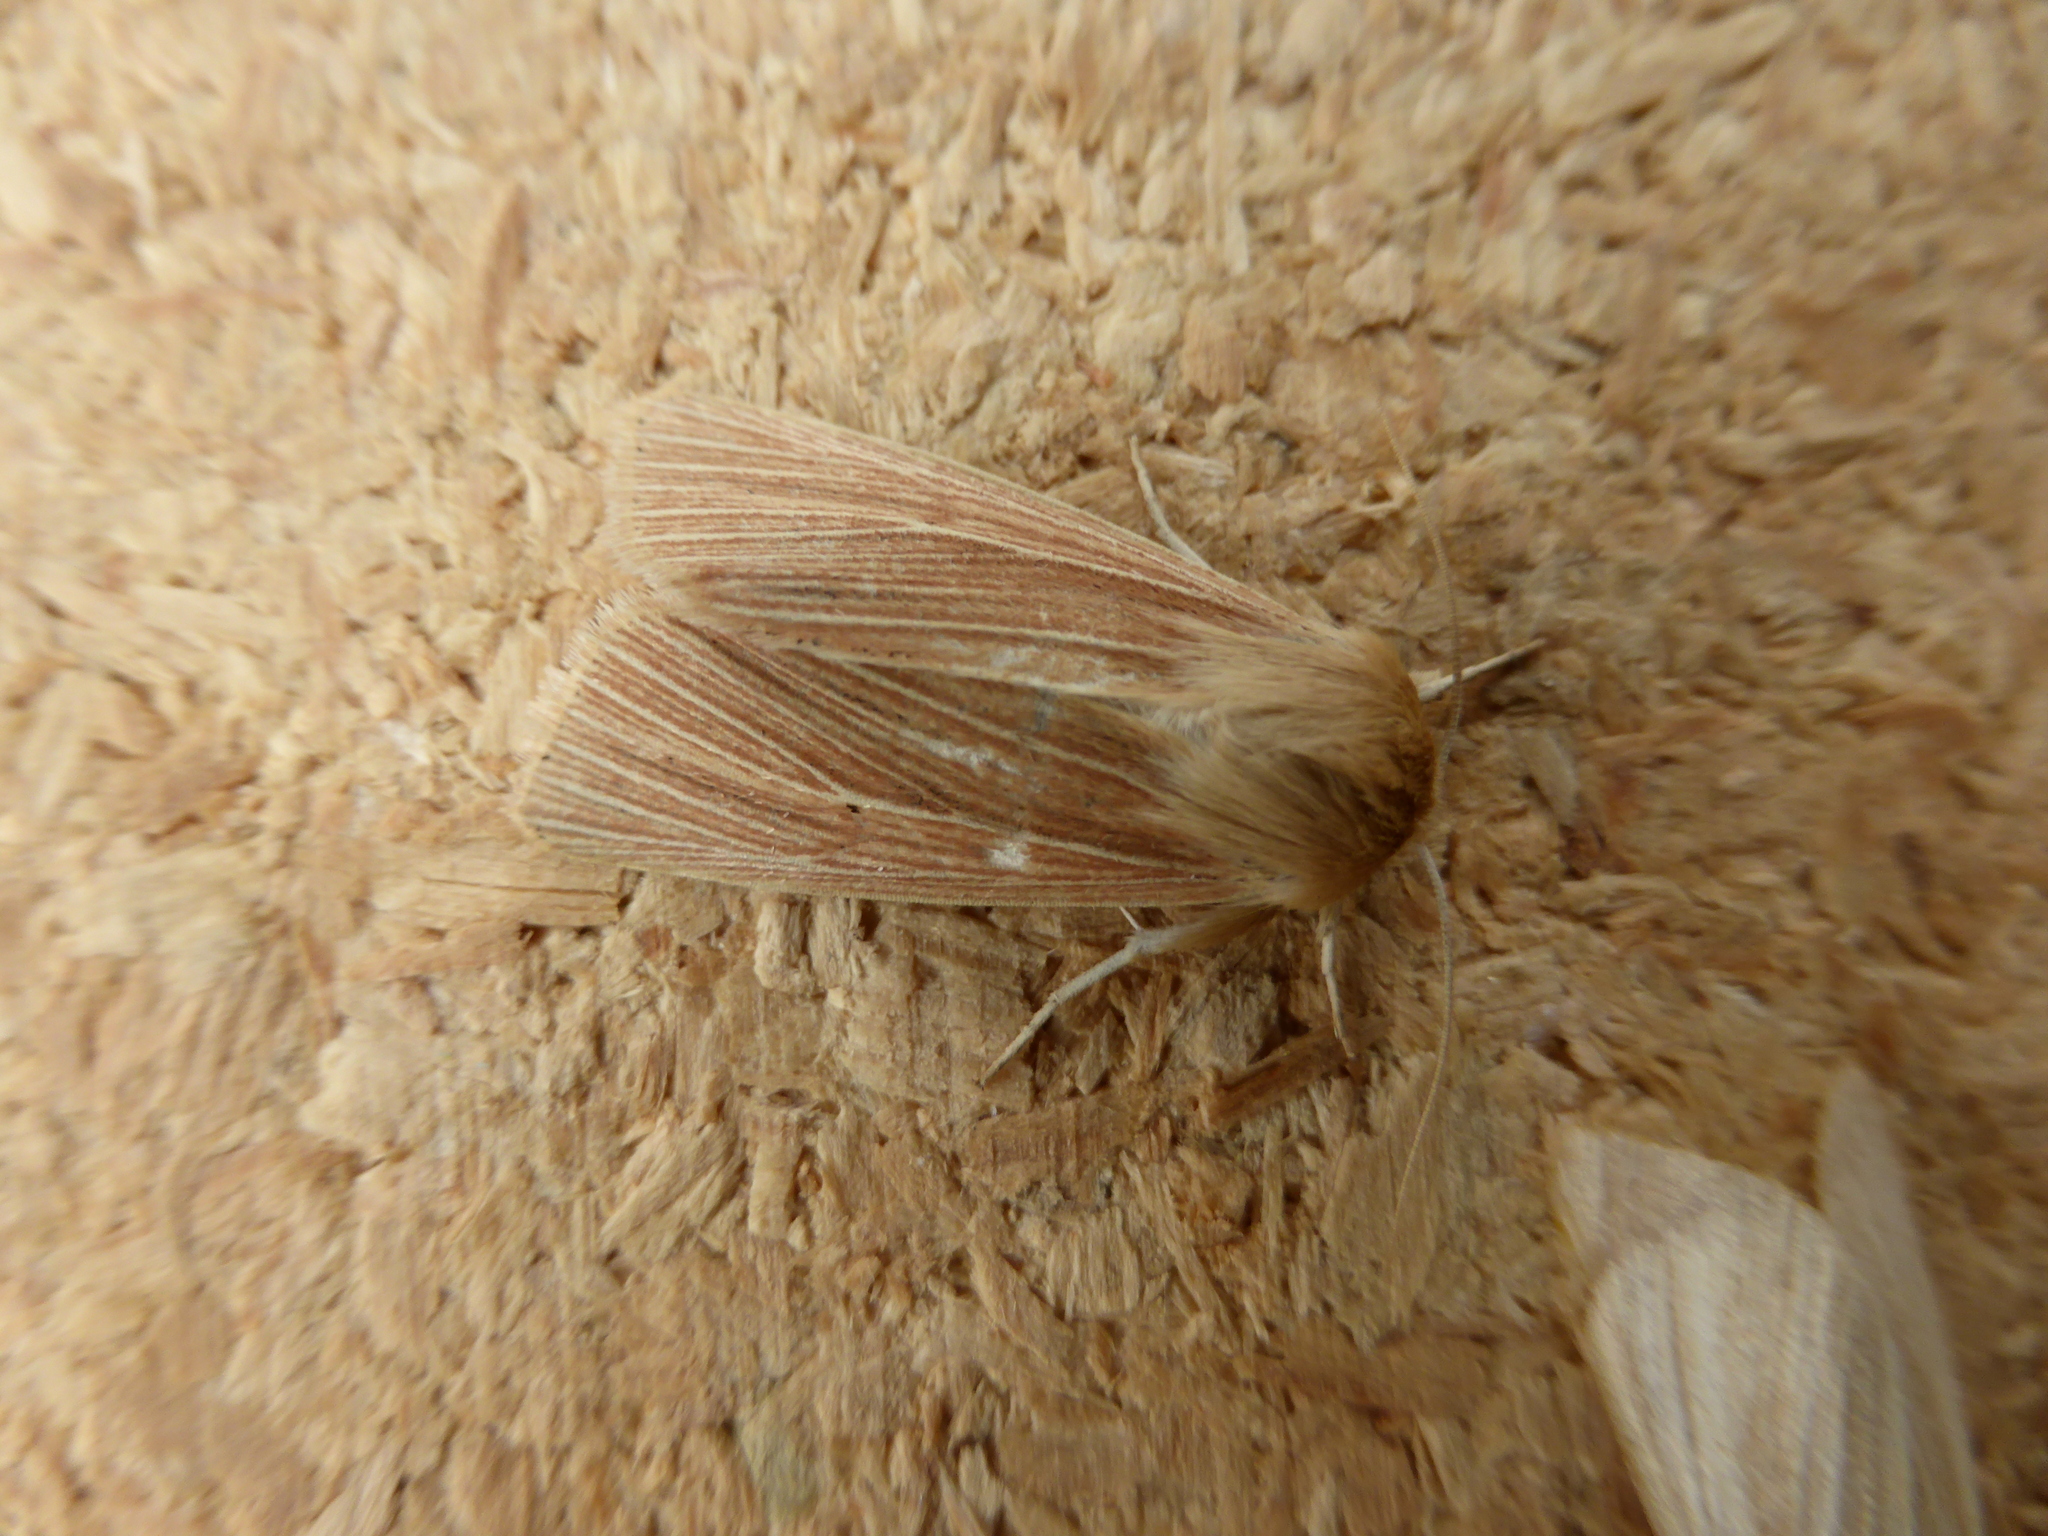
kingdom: Animalia
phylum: Arthropoda
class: Insecta
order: Lepidoptera
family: Noctuidae
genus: Mythimna
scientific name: Mythimna impura
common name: Smoky wainscot
